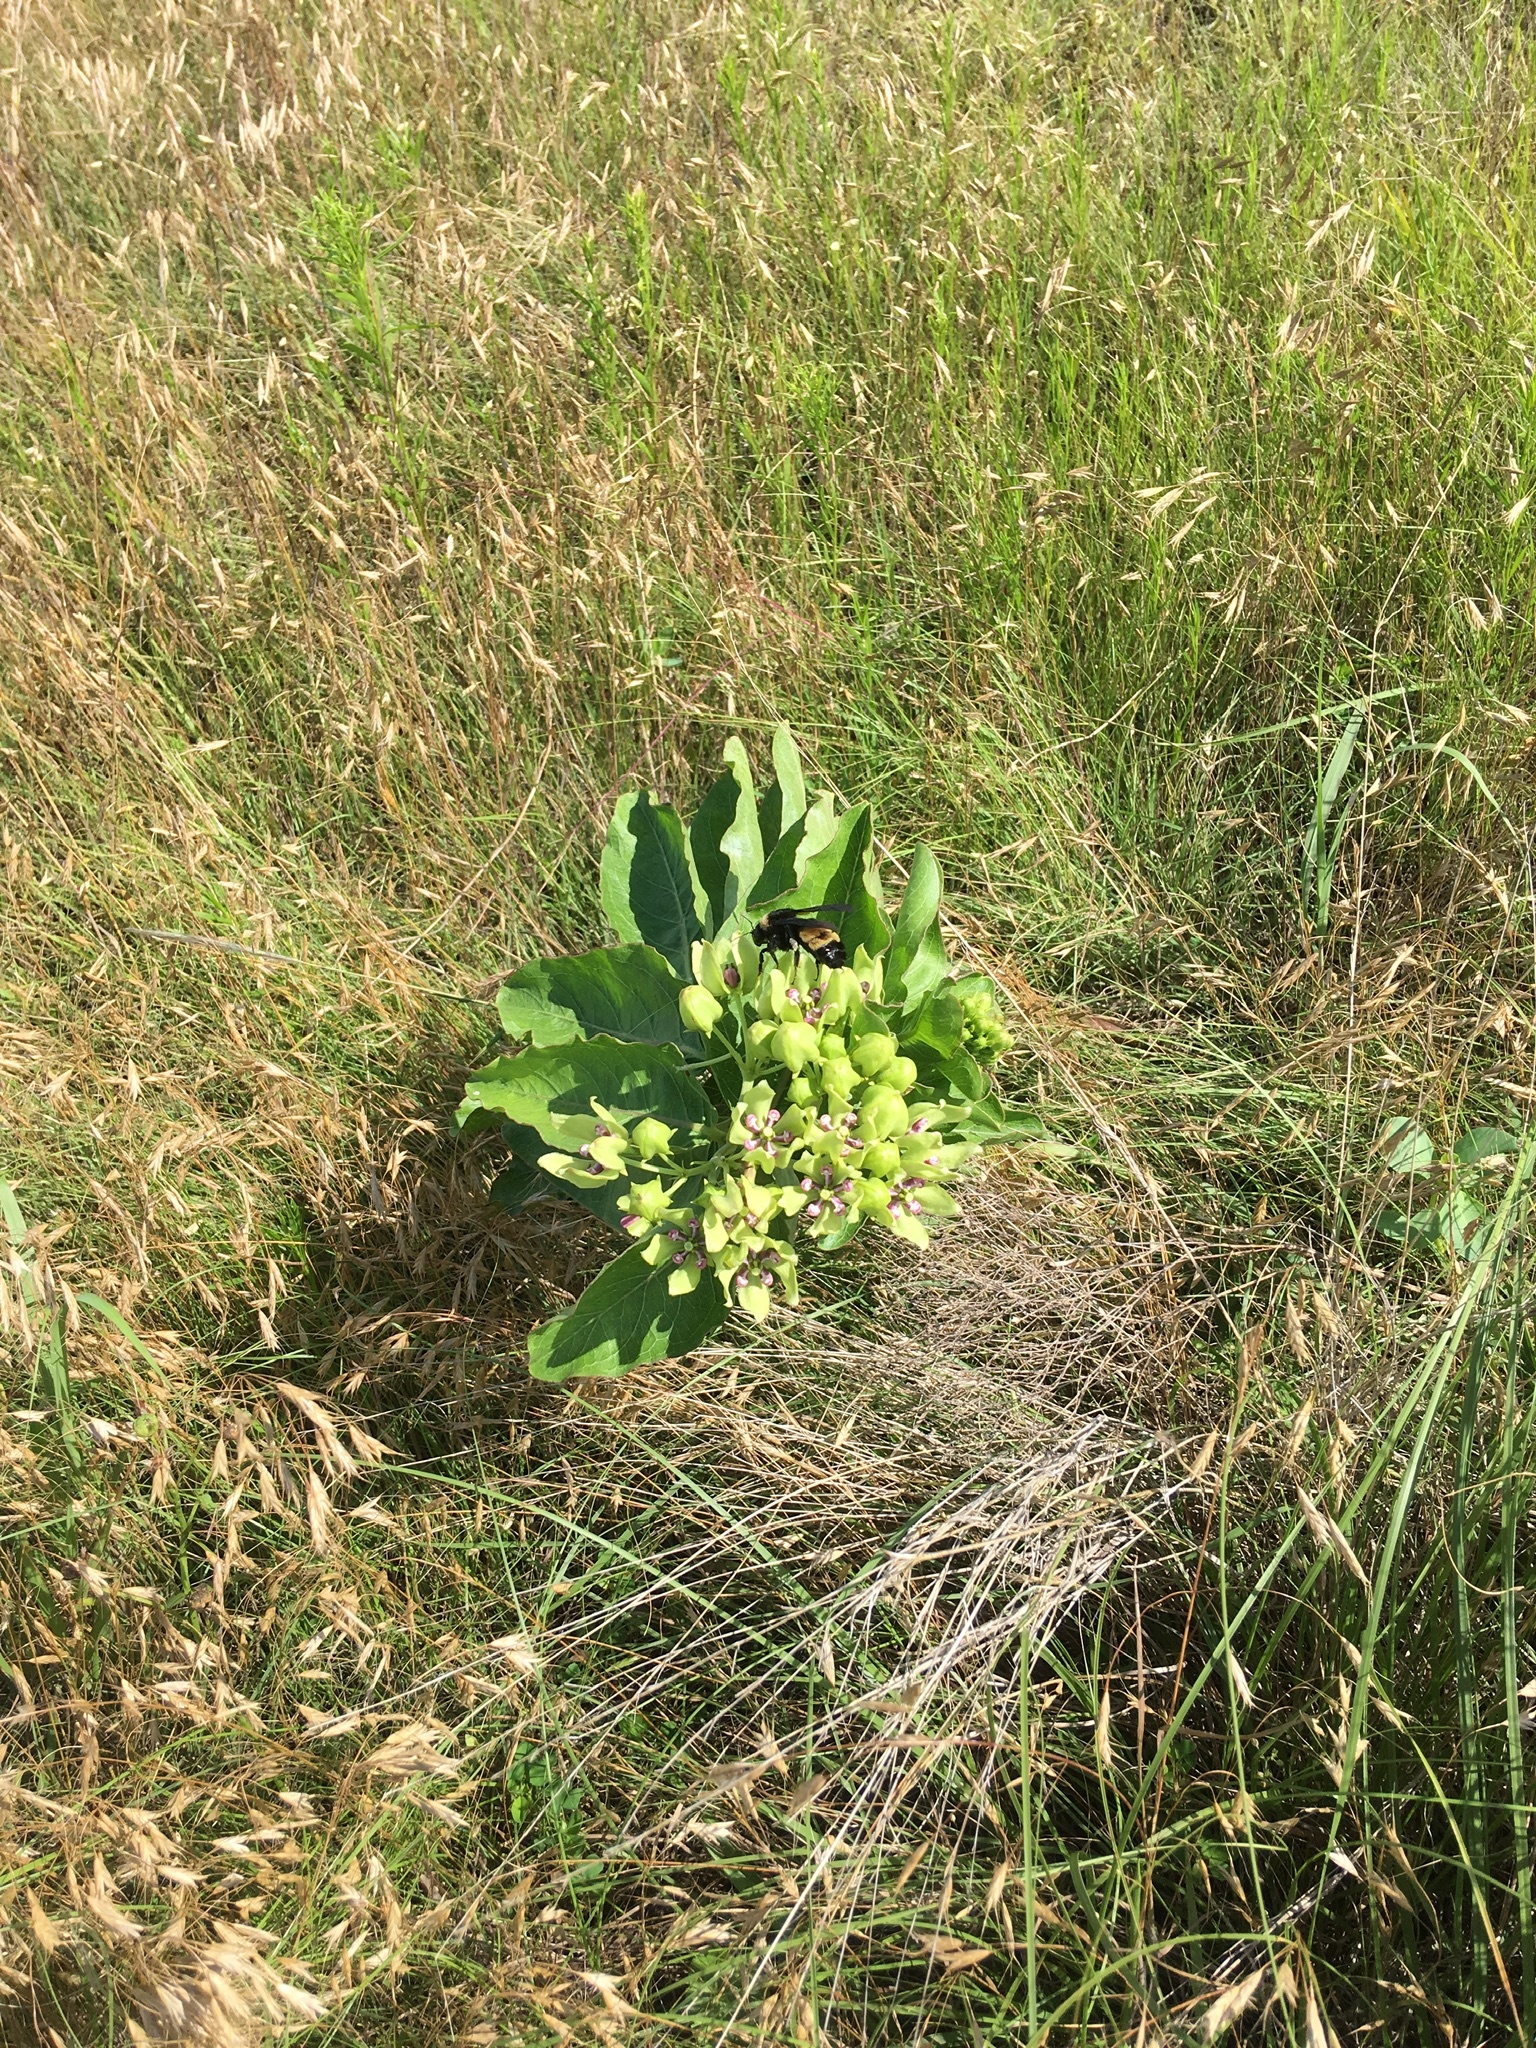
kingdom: Animalia
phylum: Arthropoda
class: Insecta
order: Hymenoptera
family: Apidae
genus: Bombus
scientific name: Bombus pensylvanicus
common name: Bumble bee
